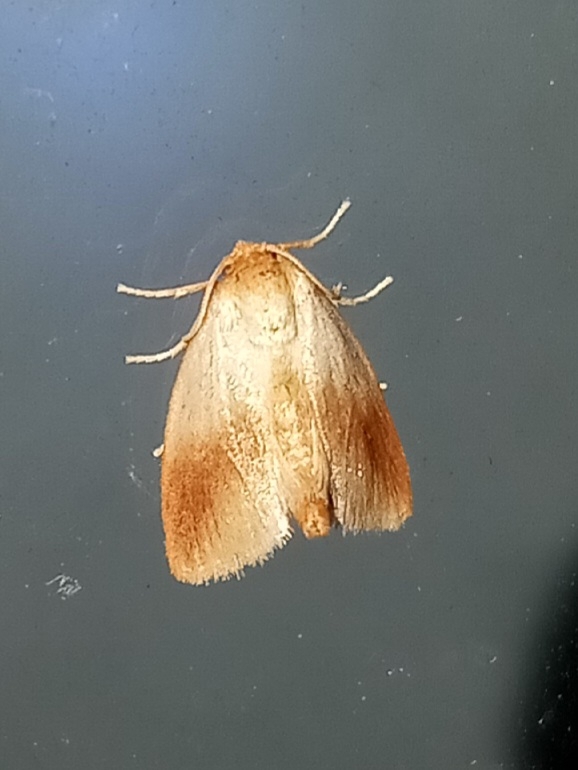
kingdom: Animalia
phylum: Arthropoda
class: Insecta
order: Lepidoptera
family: Limacodidae
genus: Tortricidia
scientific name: Tortricidia testacea
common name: Early button slug moth
